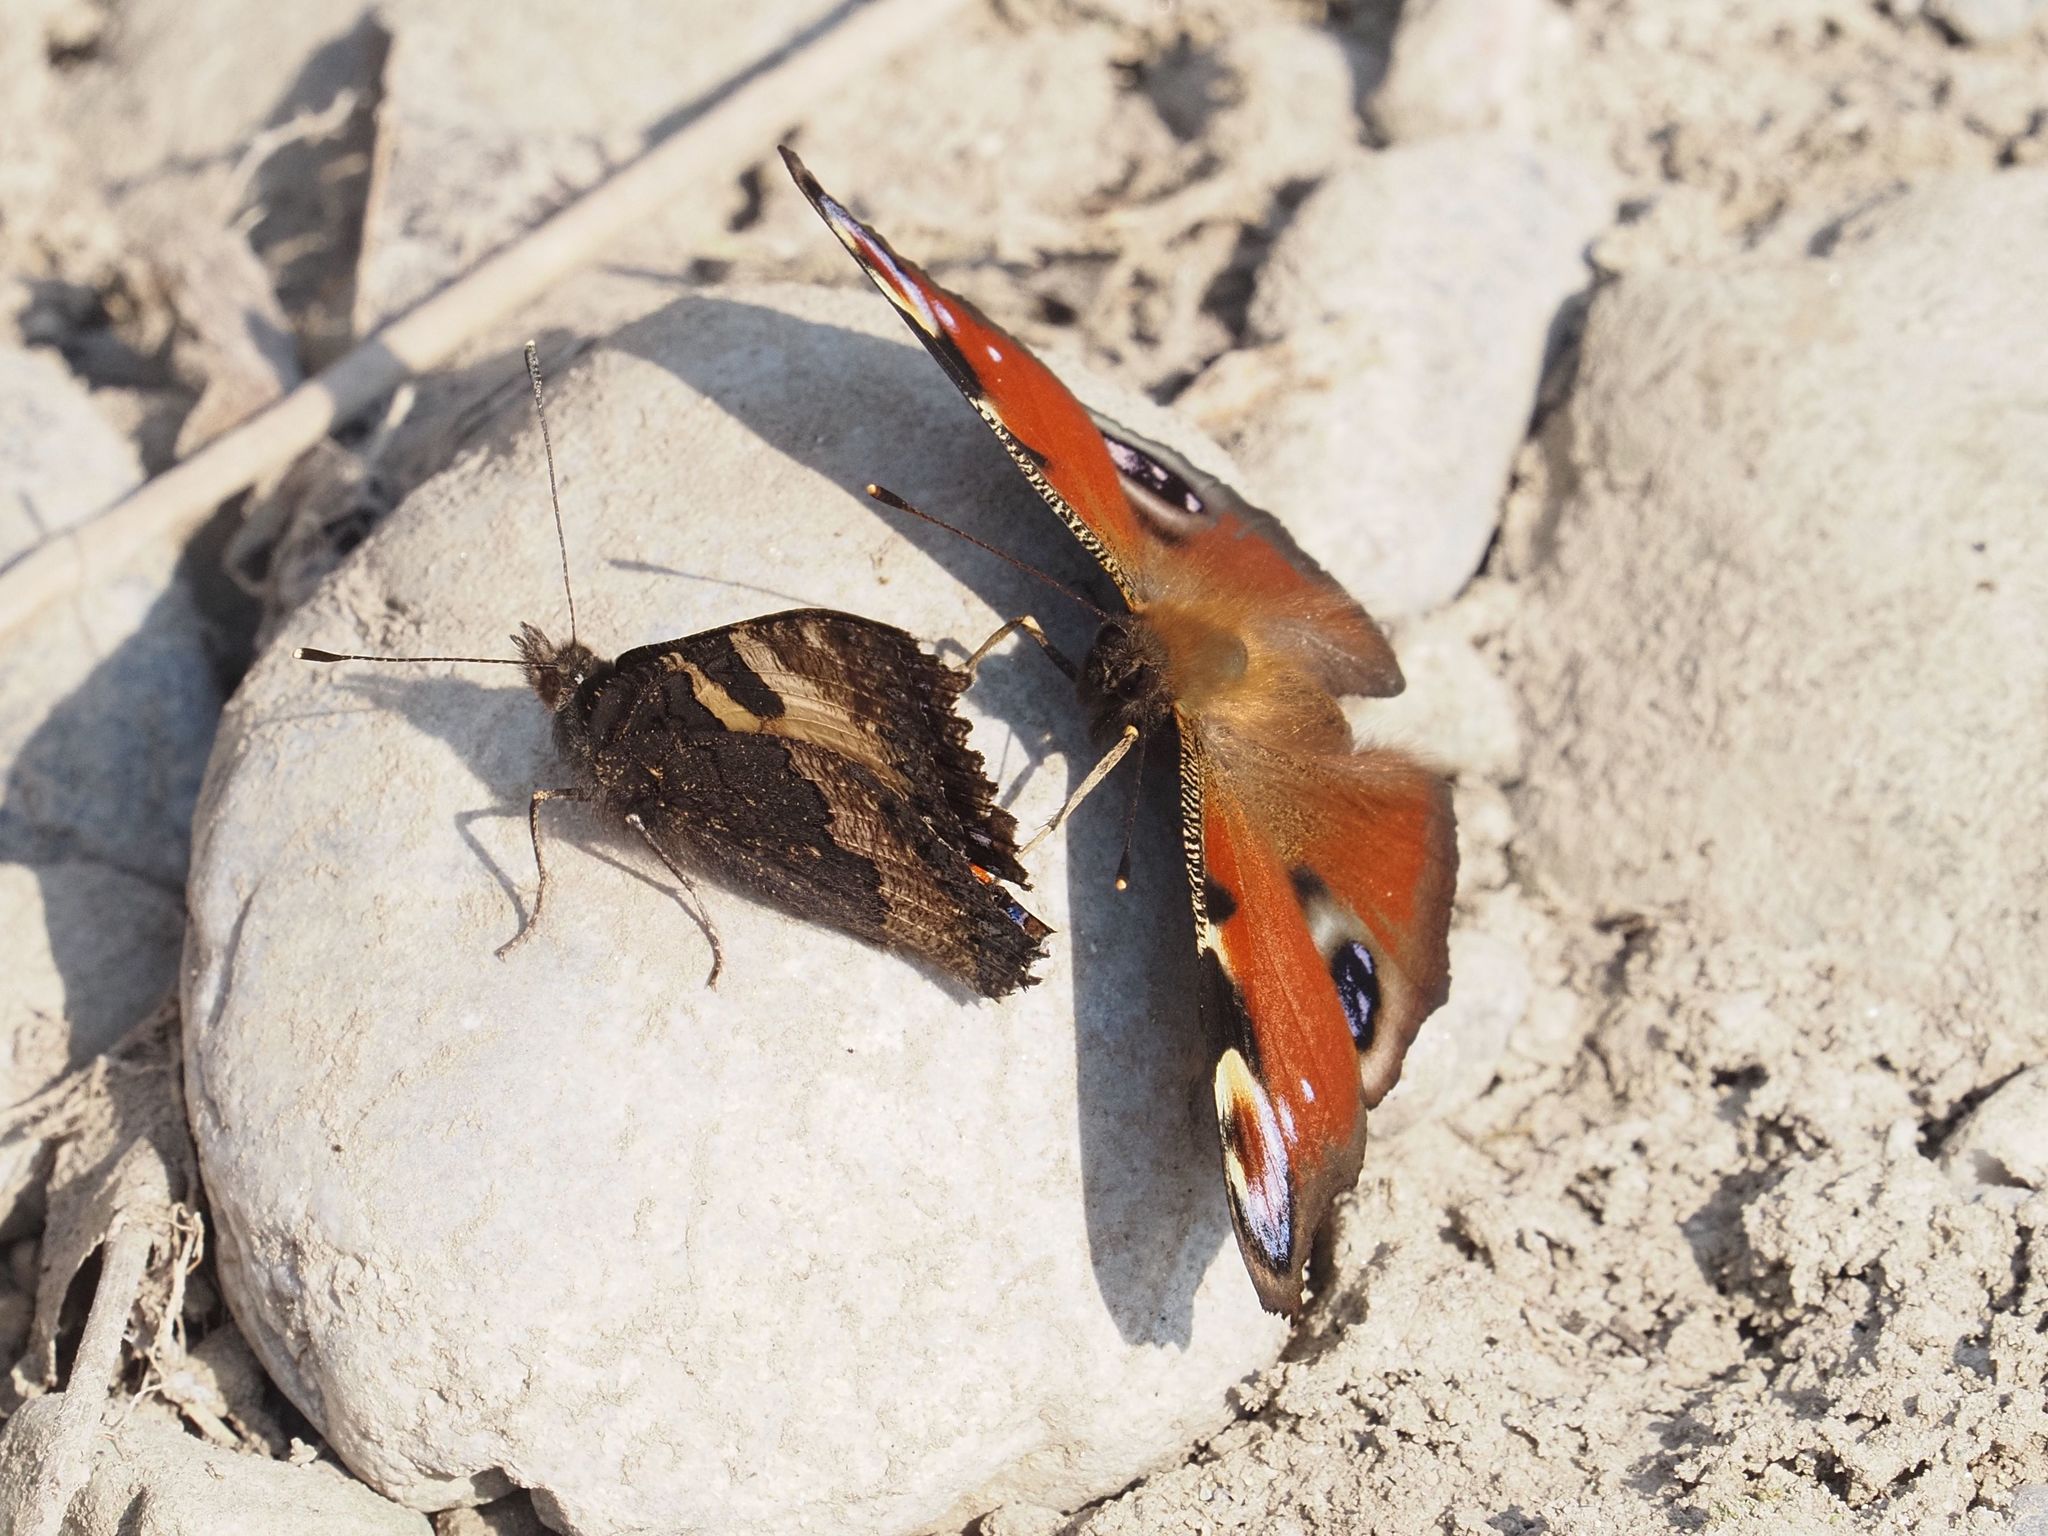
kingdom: Animalia
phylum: Arthropoda
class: Insecta
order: Lepidoptera
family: Nymphalidae
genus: Aglais
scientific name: Aglais io
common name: Peacock
